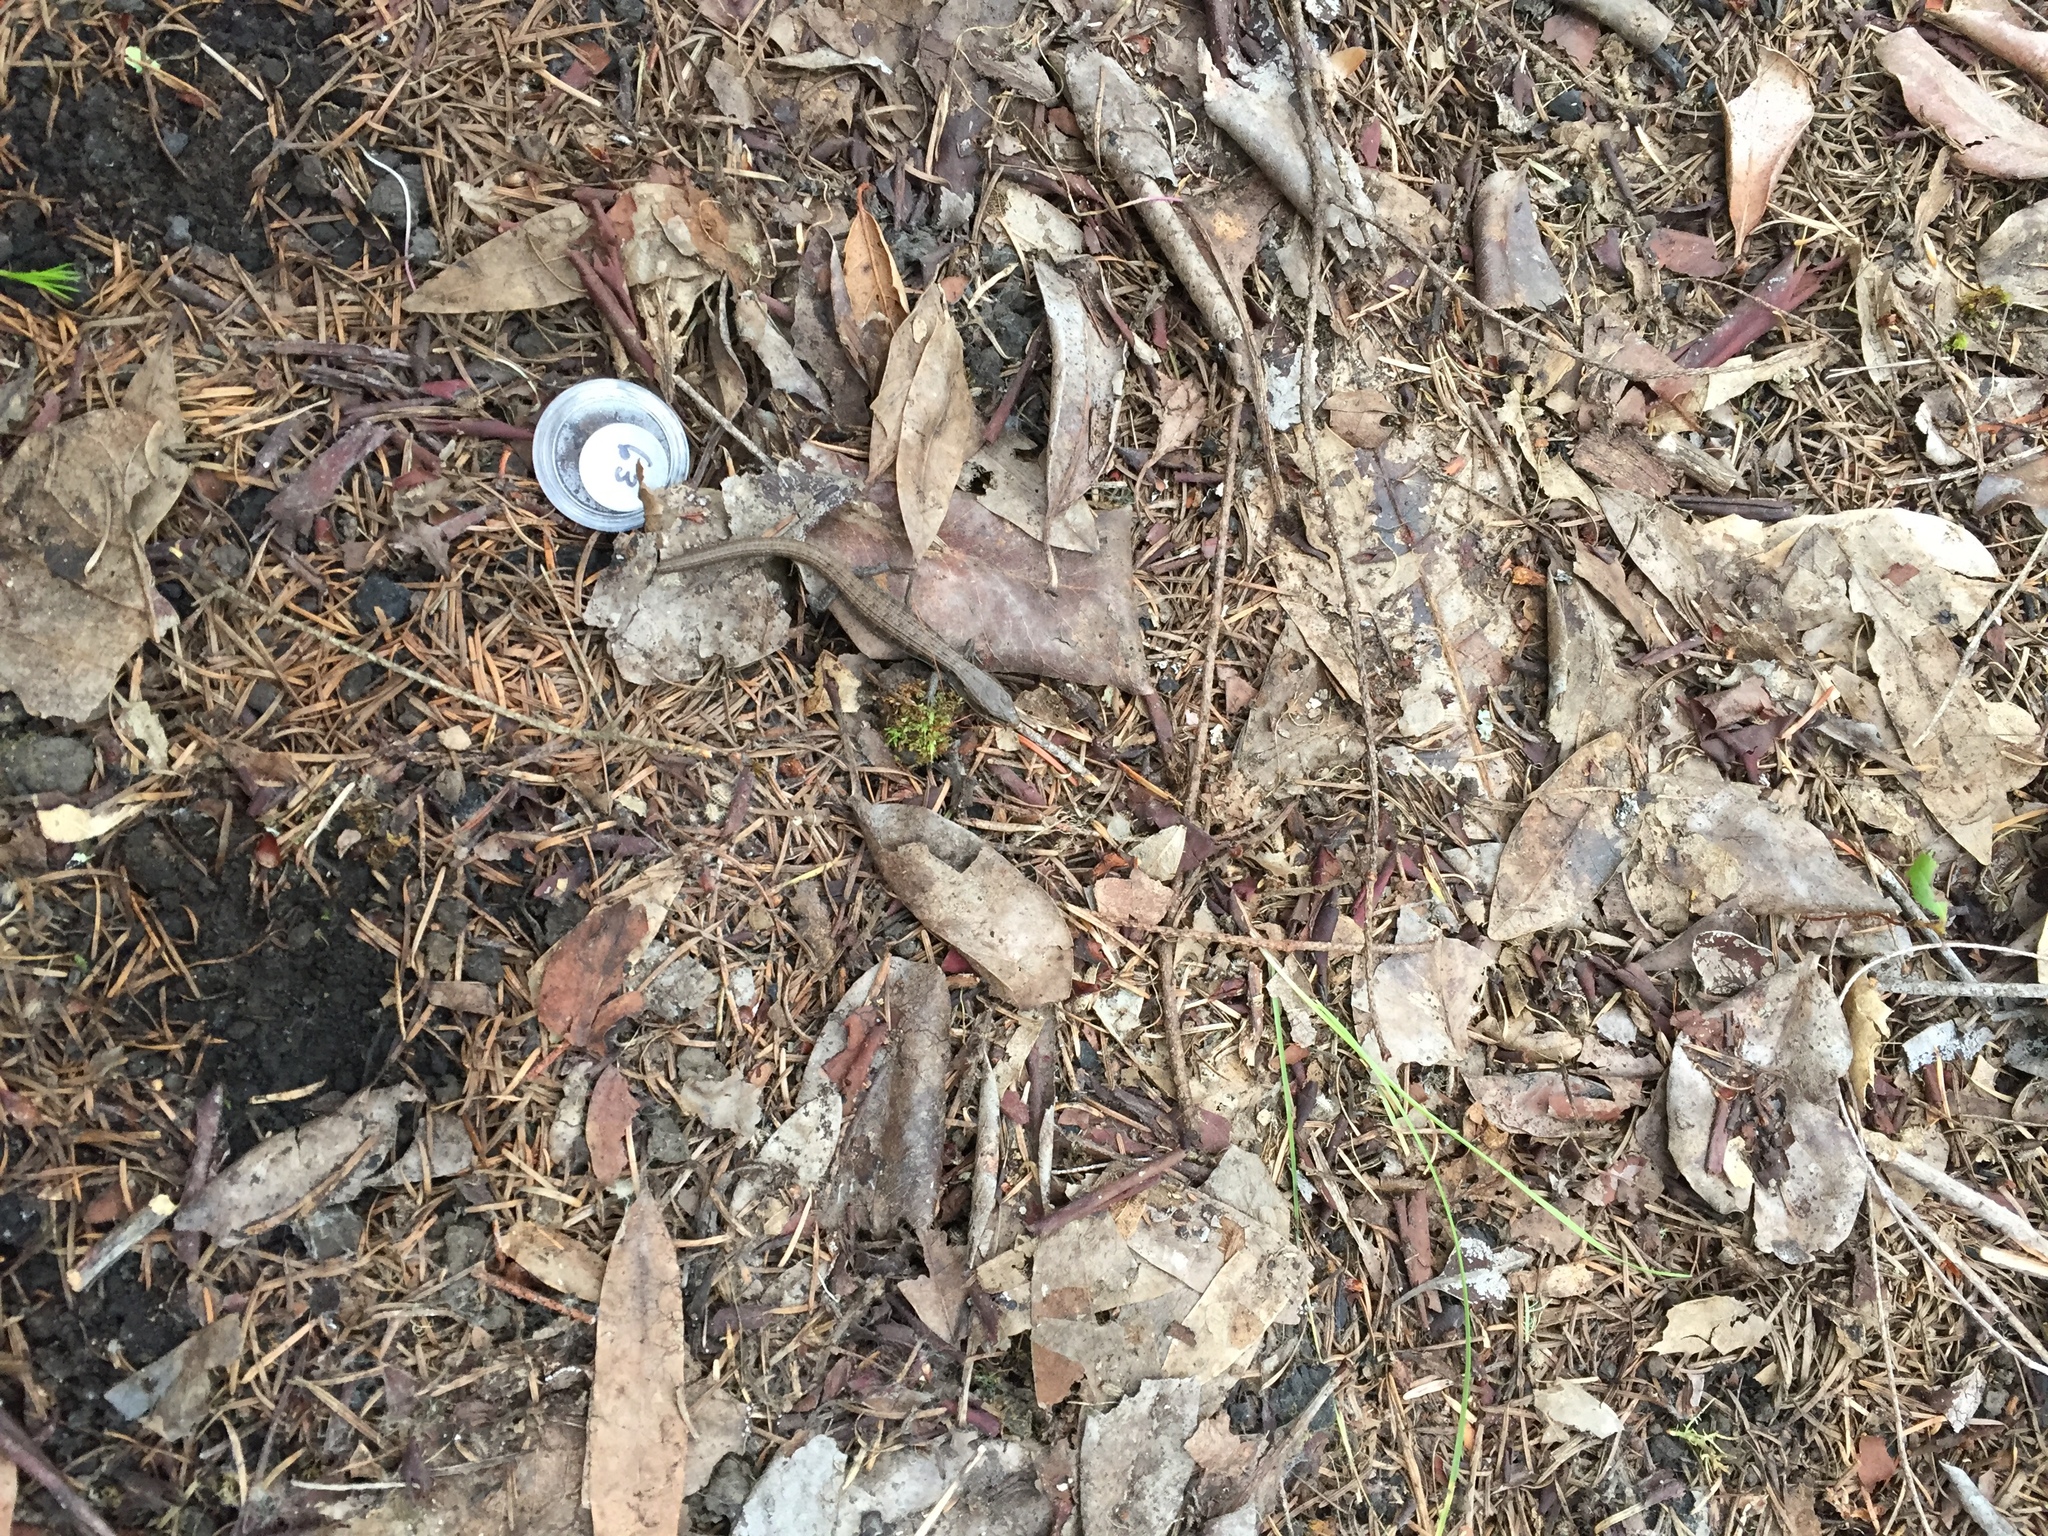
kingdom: Animalia
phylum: Chordata
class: Squamata
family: Anguidae
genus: Elgaria
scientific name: Elgaria multicarinata
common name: Southern alligator lizard
